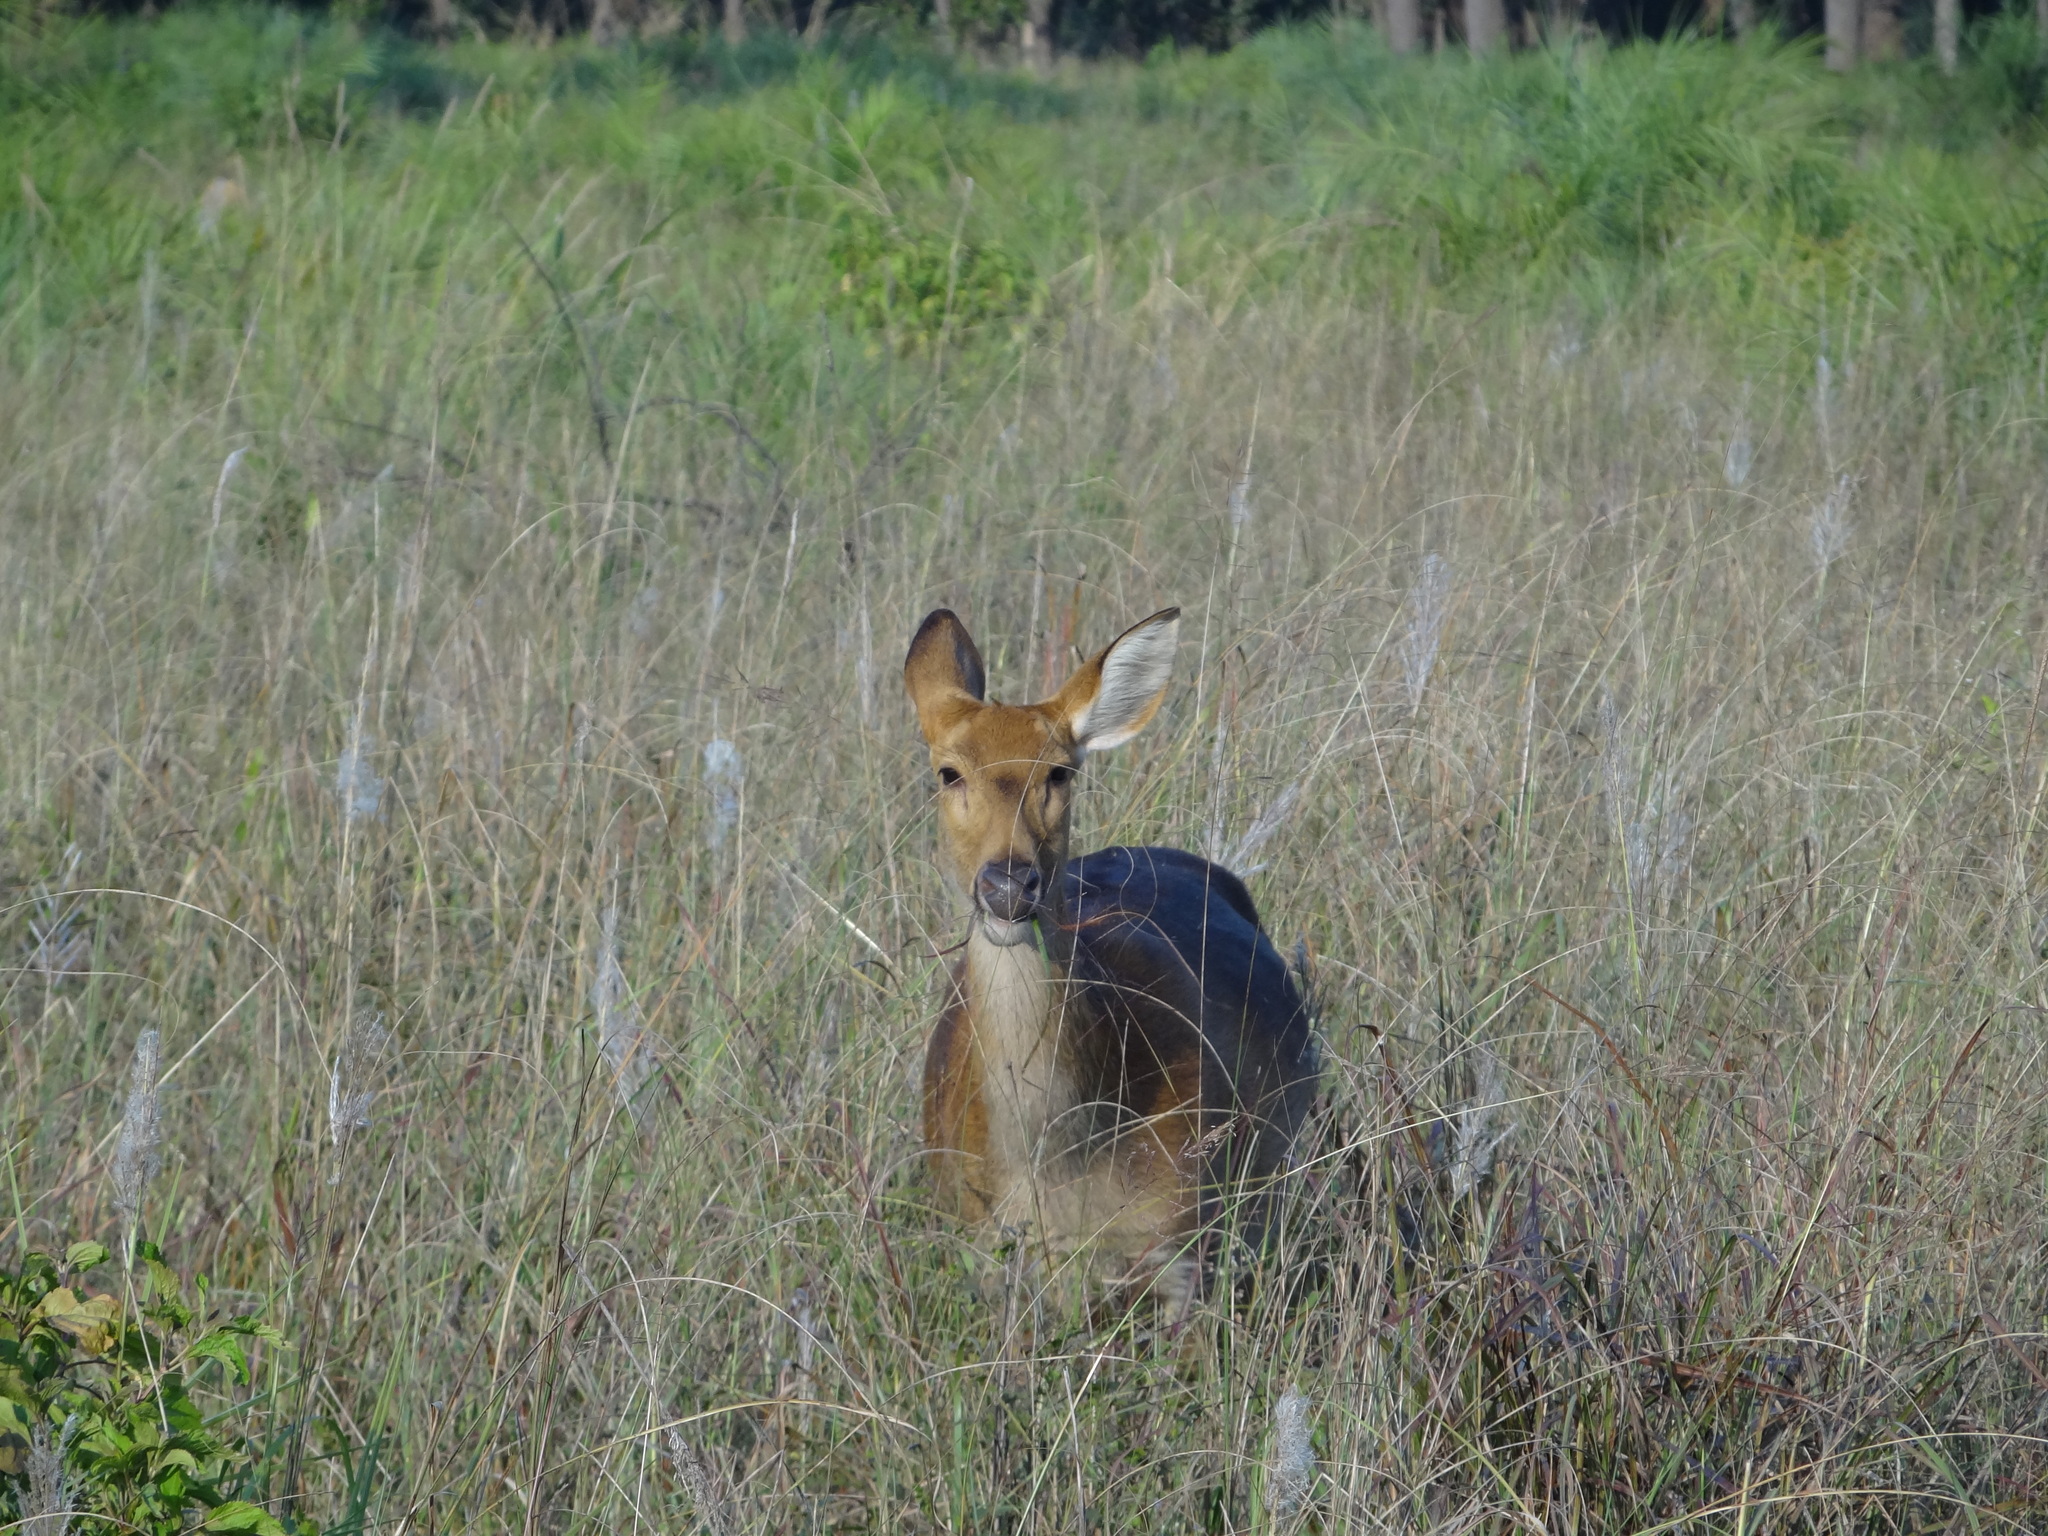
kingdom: Animalia
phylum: Chordata
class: Mammalia
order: Artiodactyla
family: Cervidae
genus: Rucervus
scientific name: Rucervus duvaucelii
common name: Barasingha
